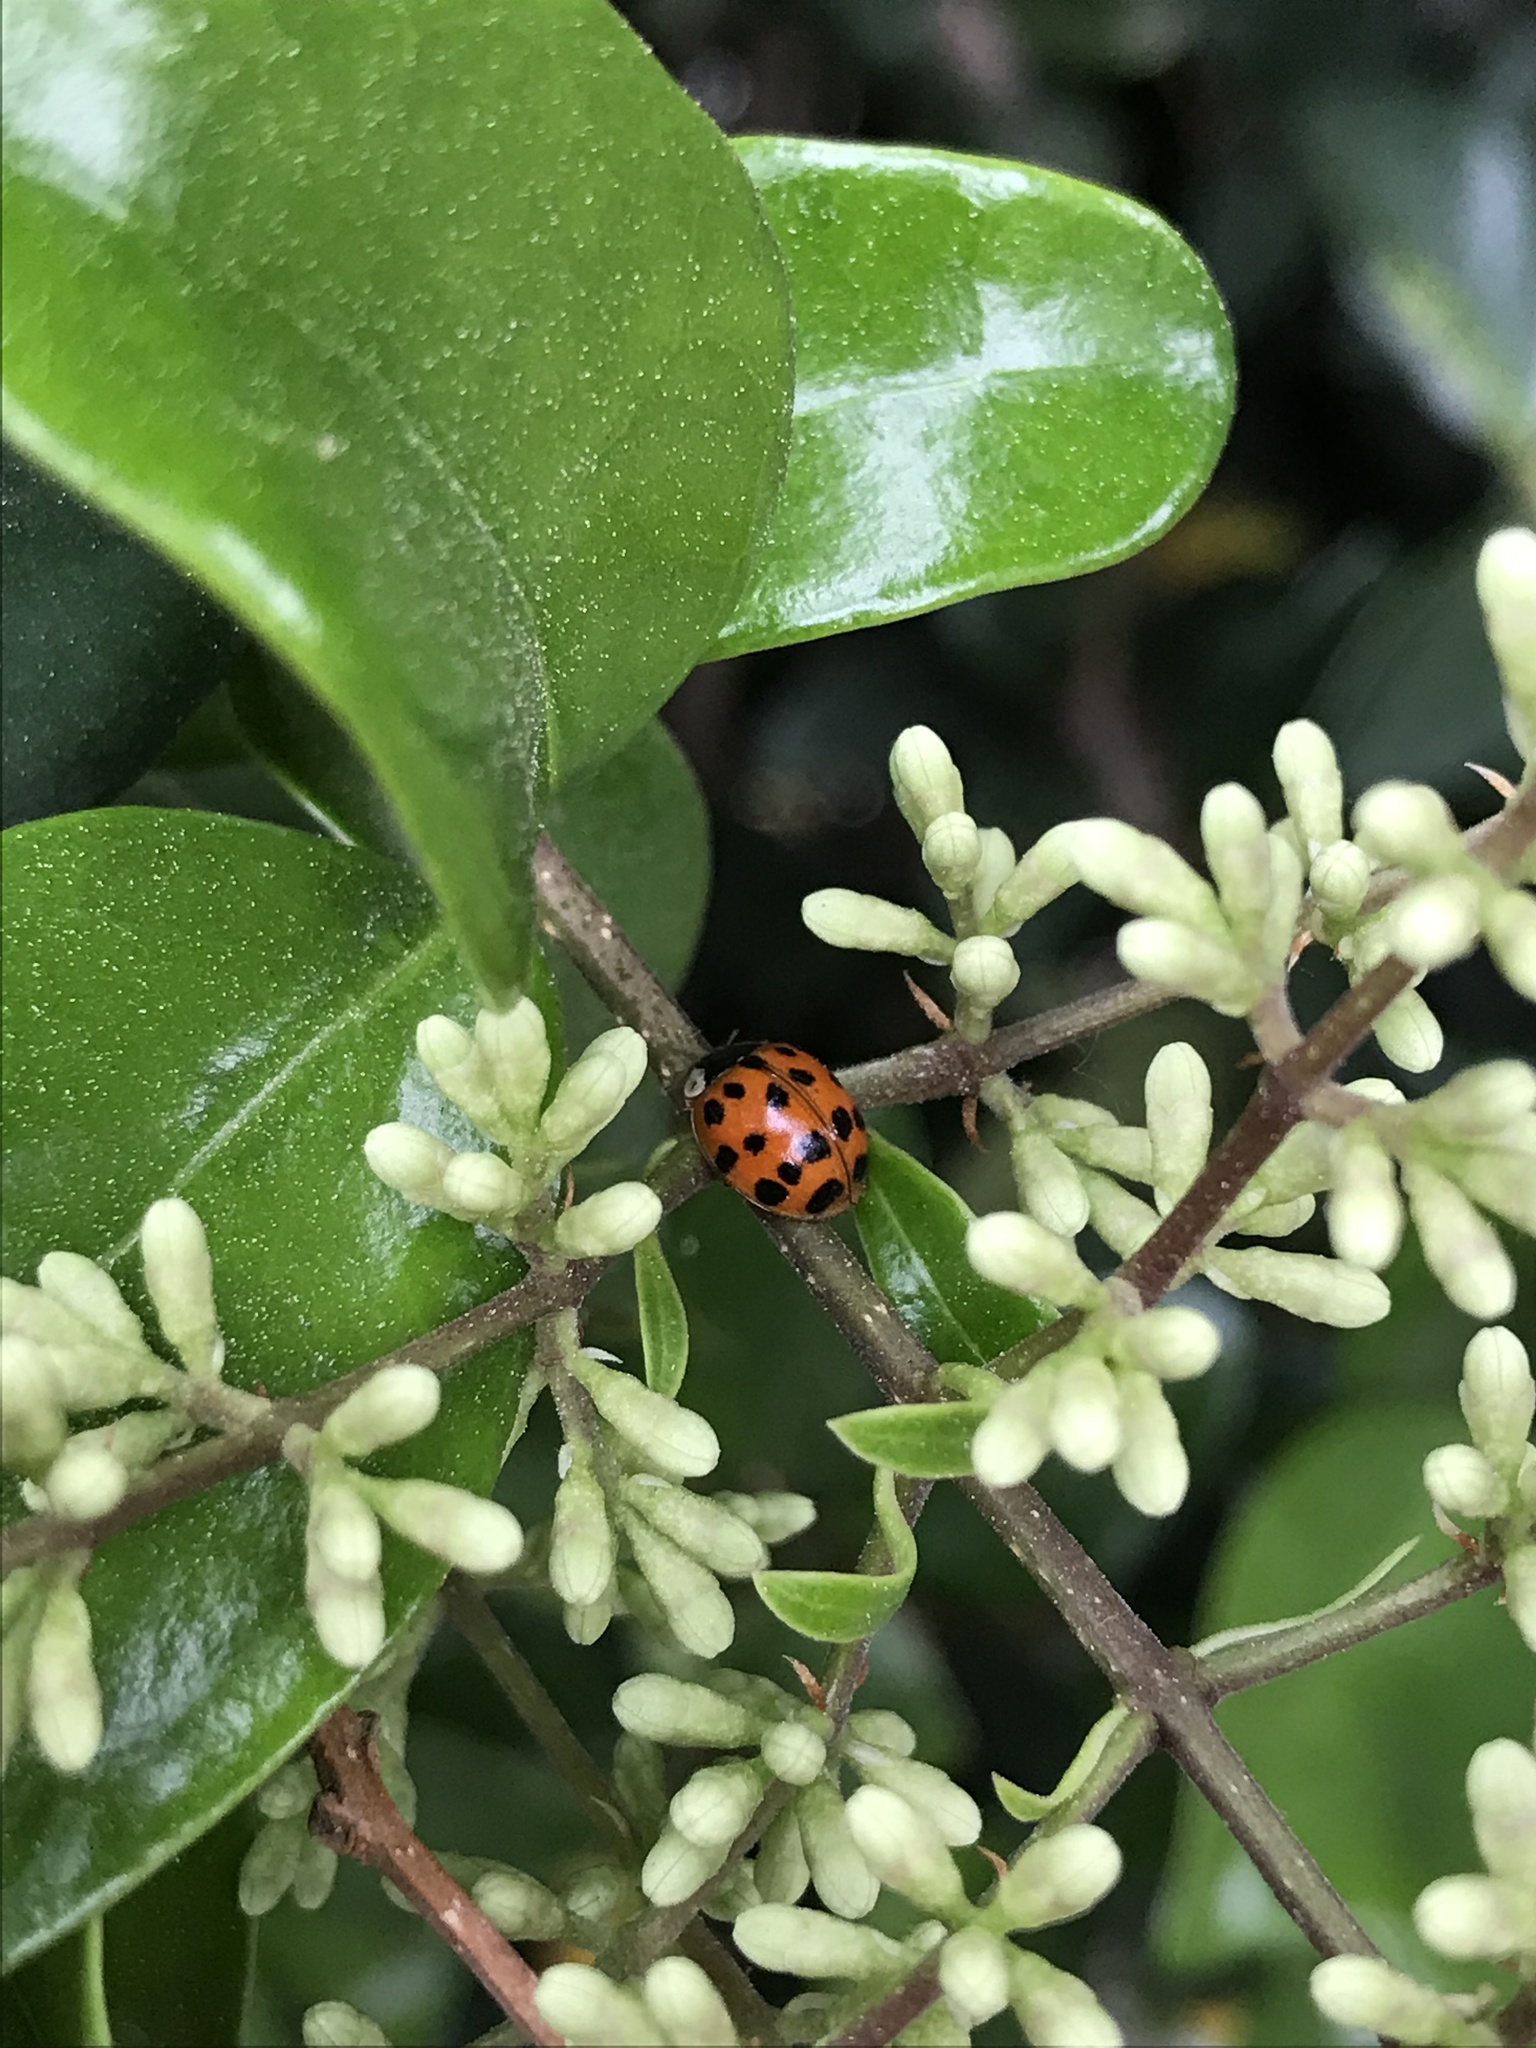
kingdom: Animalia
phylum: Arthropoda
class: Insecta
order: Coleoptera
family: Coccinellidae
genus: Harmonia
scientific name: Harmonia axyridis
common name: Harlequin ladybird
